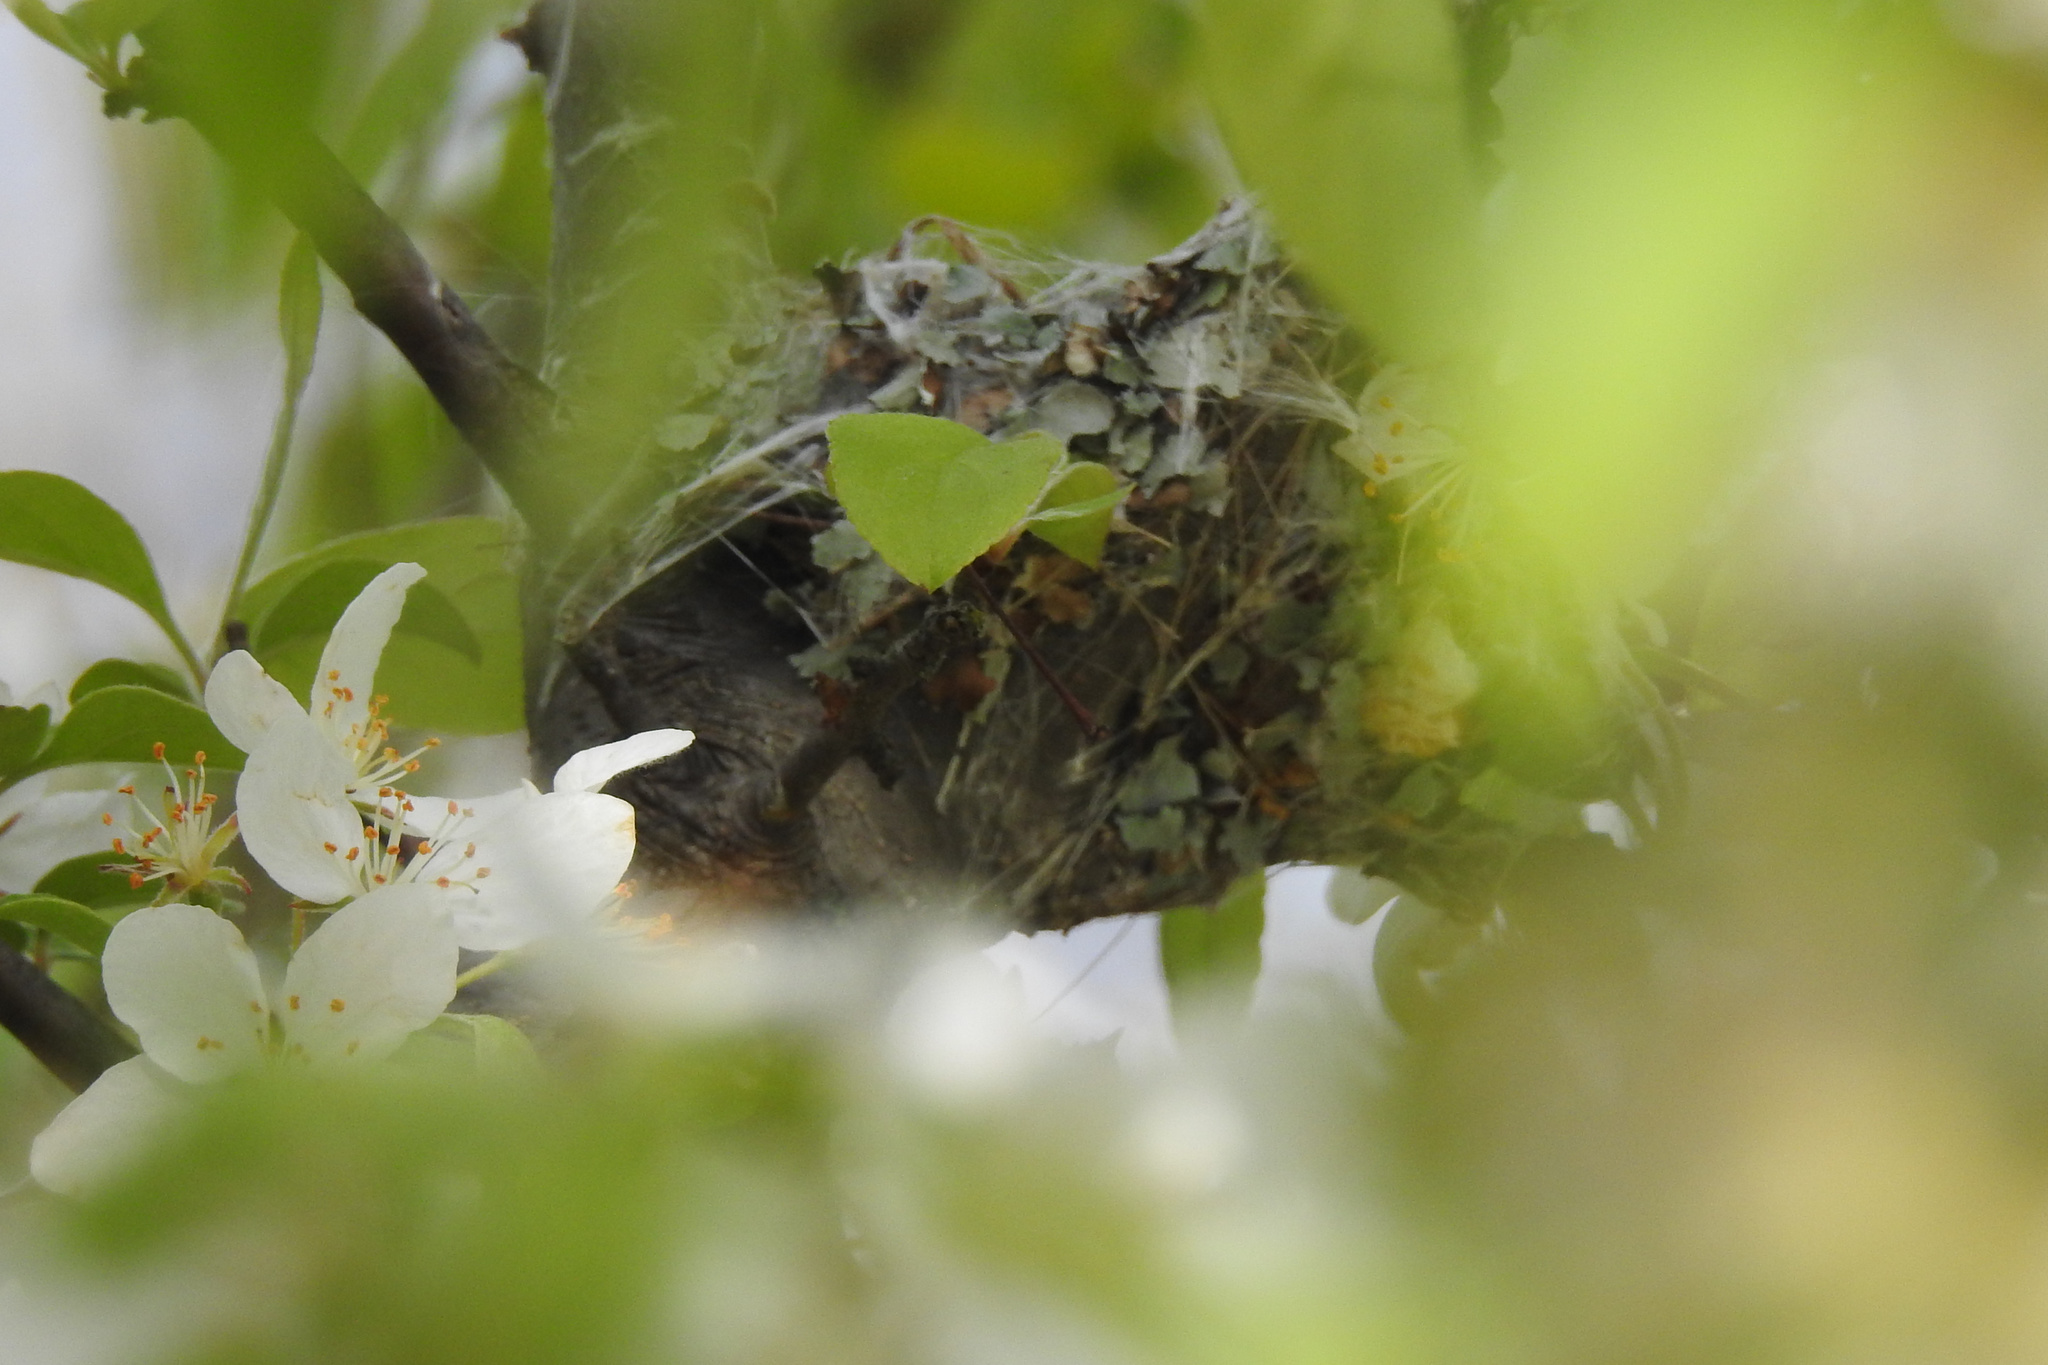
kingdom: Animalia
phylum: Chordata
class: Aves
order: Passeriformes
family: Polioptilidae
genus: Polioptila
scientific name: Polioptila caerulea
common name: Blue-gray gnatcatcher
